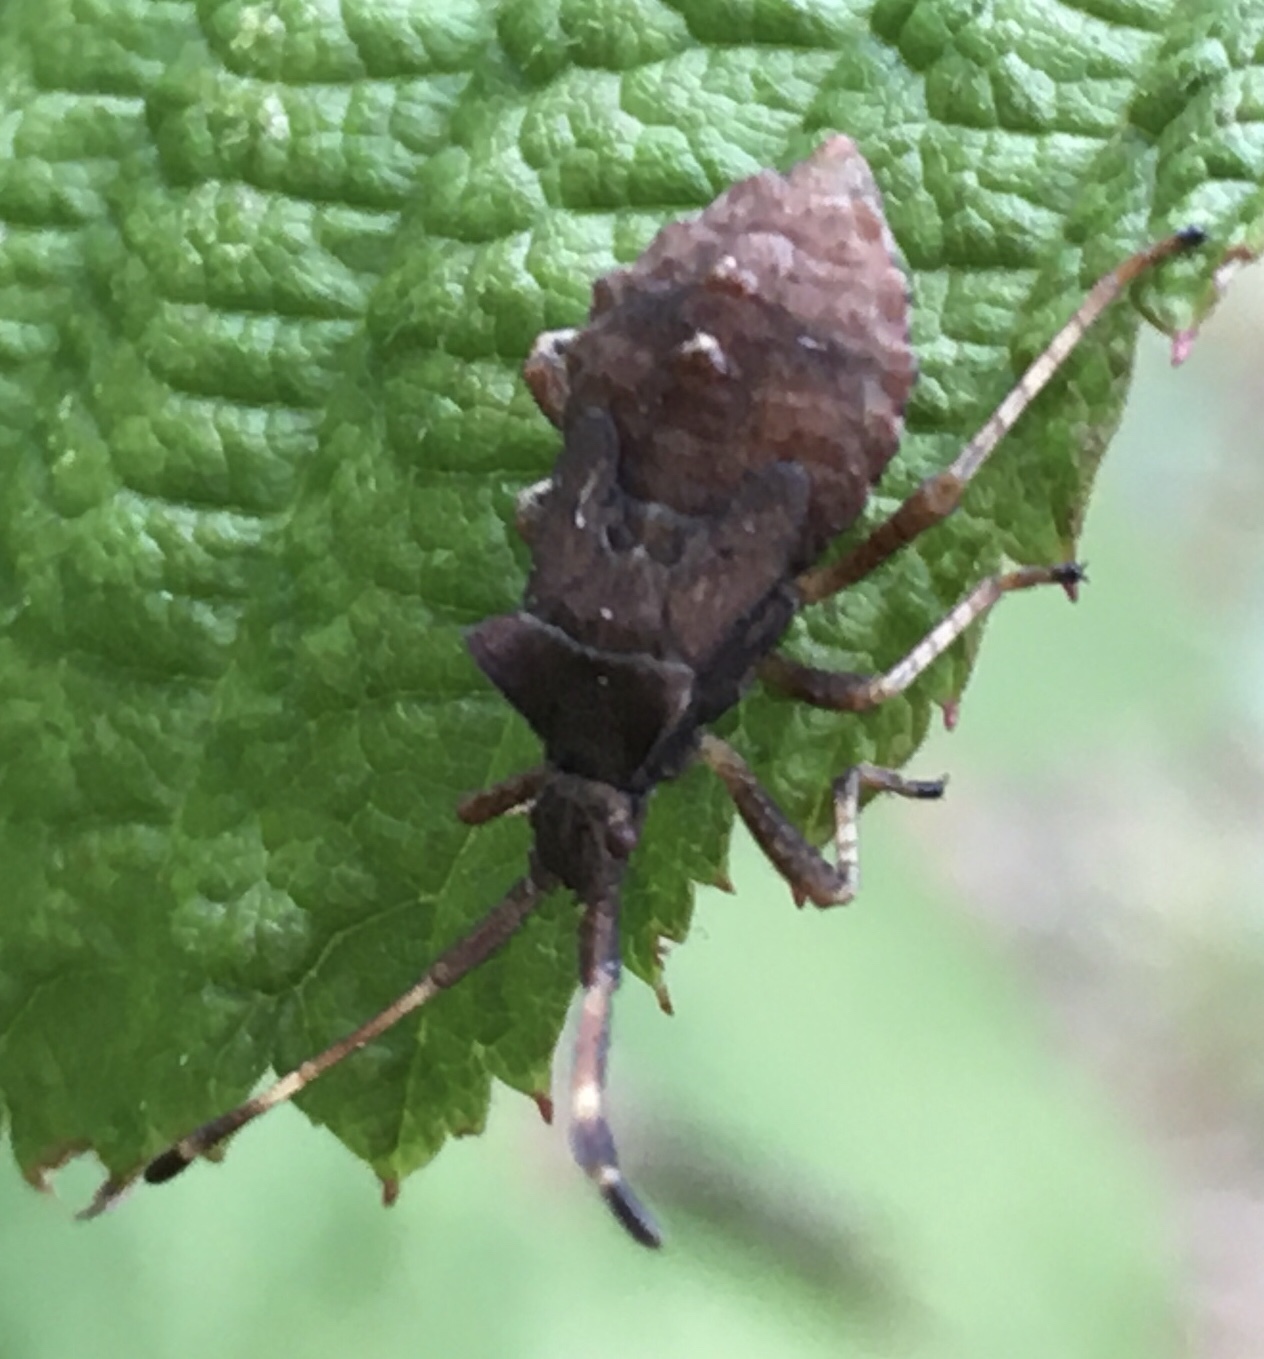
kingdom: Animalia
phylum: Arthropoda
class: Insecta
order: Hemiptera
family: Coreidae
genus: Coreus
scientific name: Coreus marginatus
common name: Dock bug
